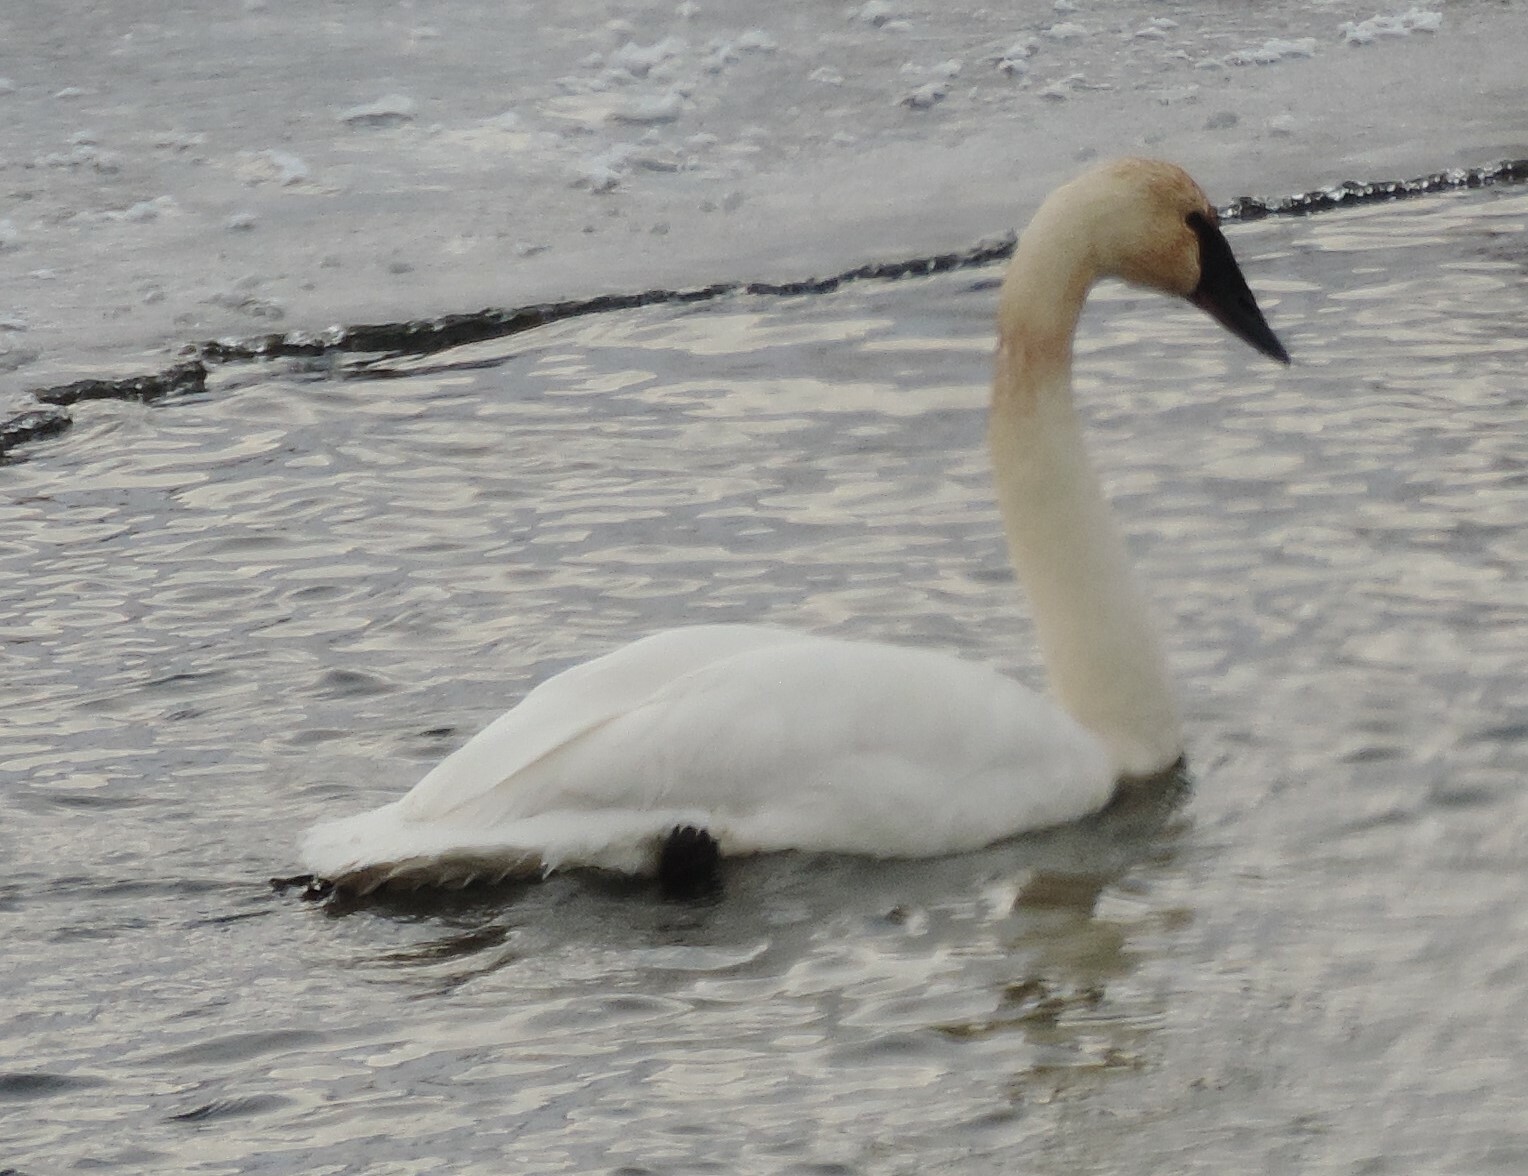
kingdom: Animalia
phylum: Chordata
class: Aves
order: Anseriformes
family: Anatidae
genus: Cygnus
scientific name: Cygnus buccinator
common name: Trumpeter swan
